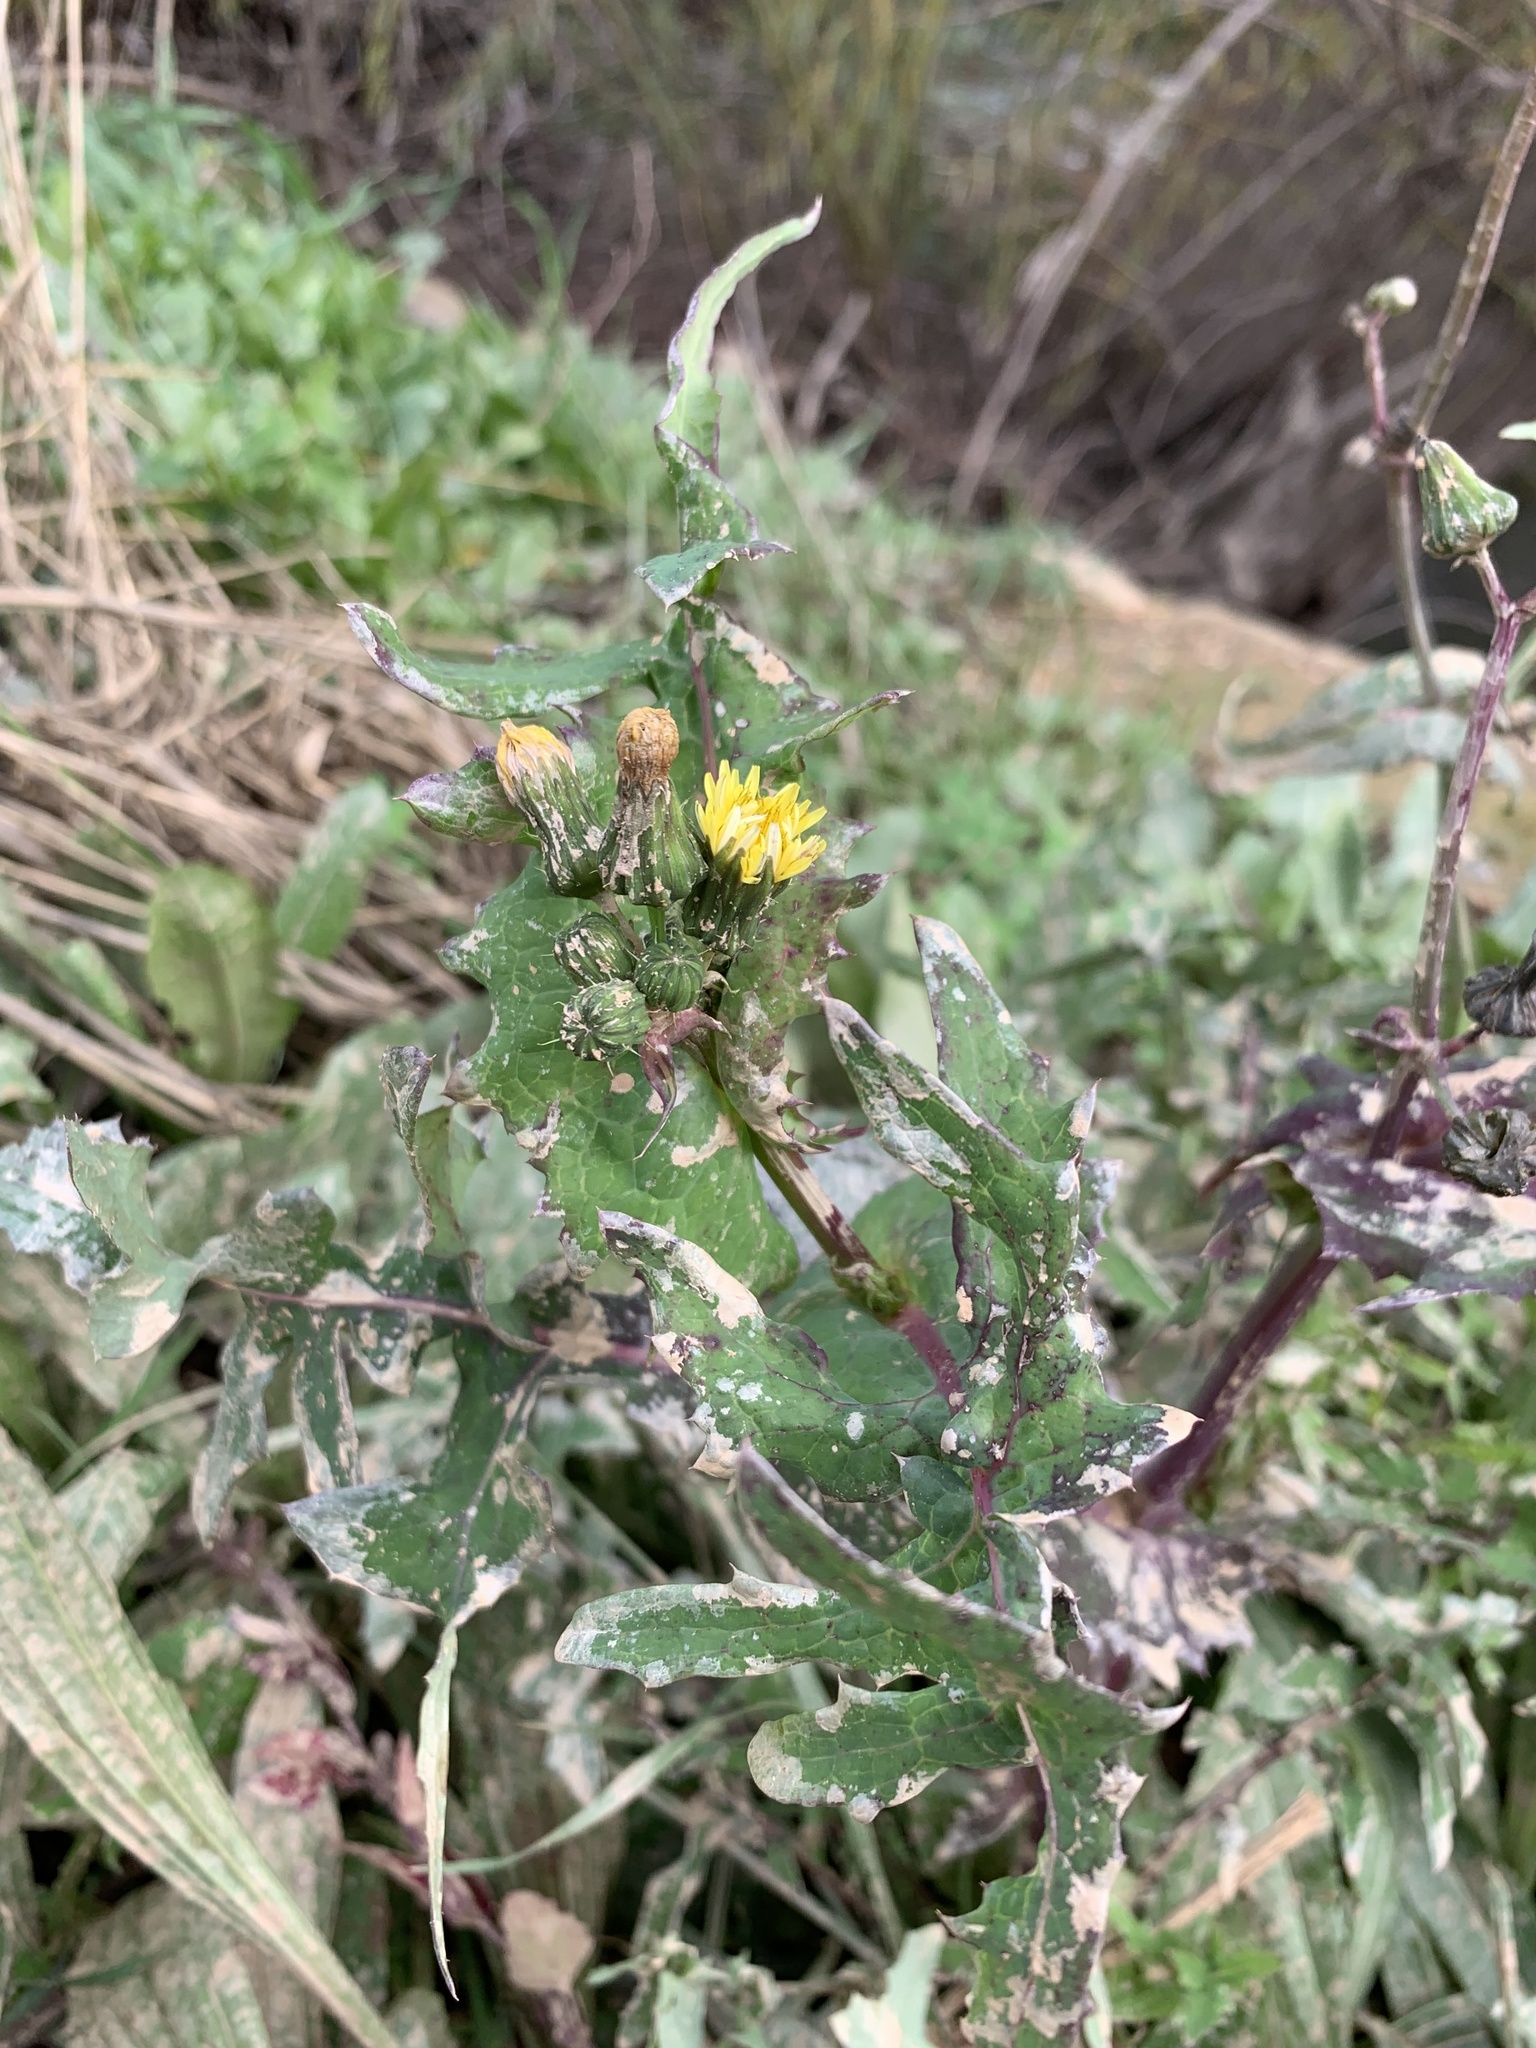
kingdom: Plantae
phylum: Tracheophyta
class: Magnoliopsida
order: Asterales
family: Asteraceae
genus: Sonchus
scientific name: Sonchus oleraceus
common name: Common sowthistle
